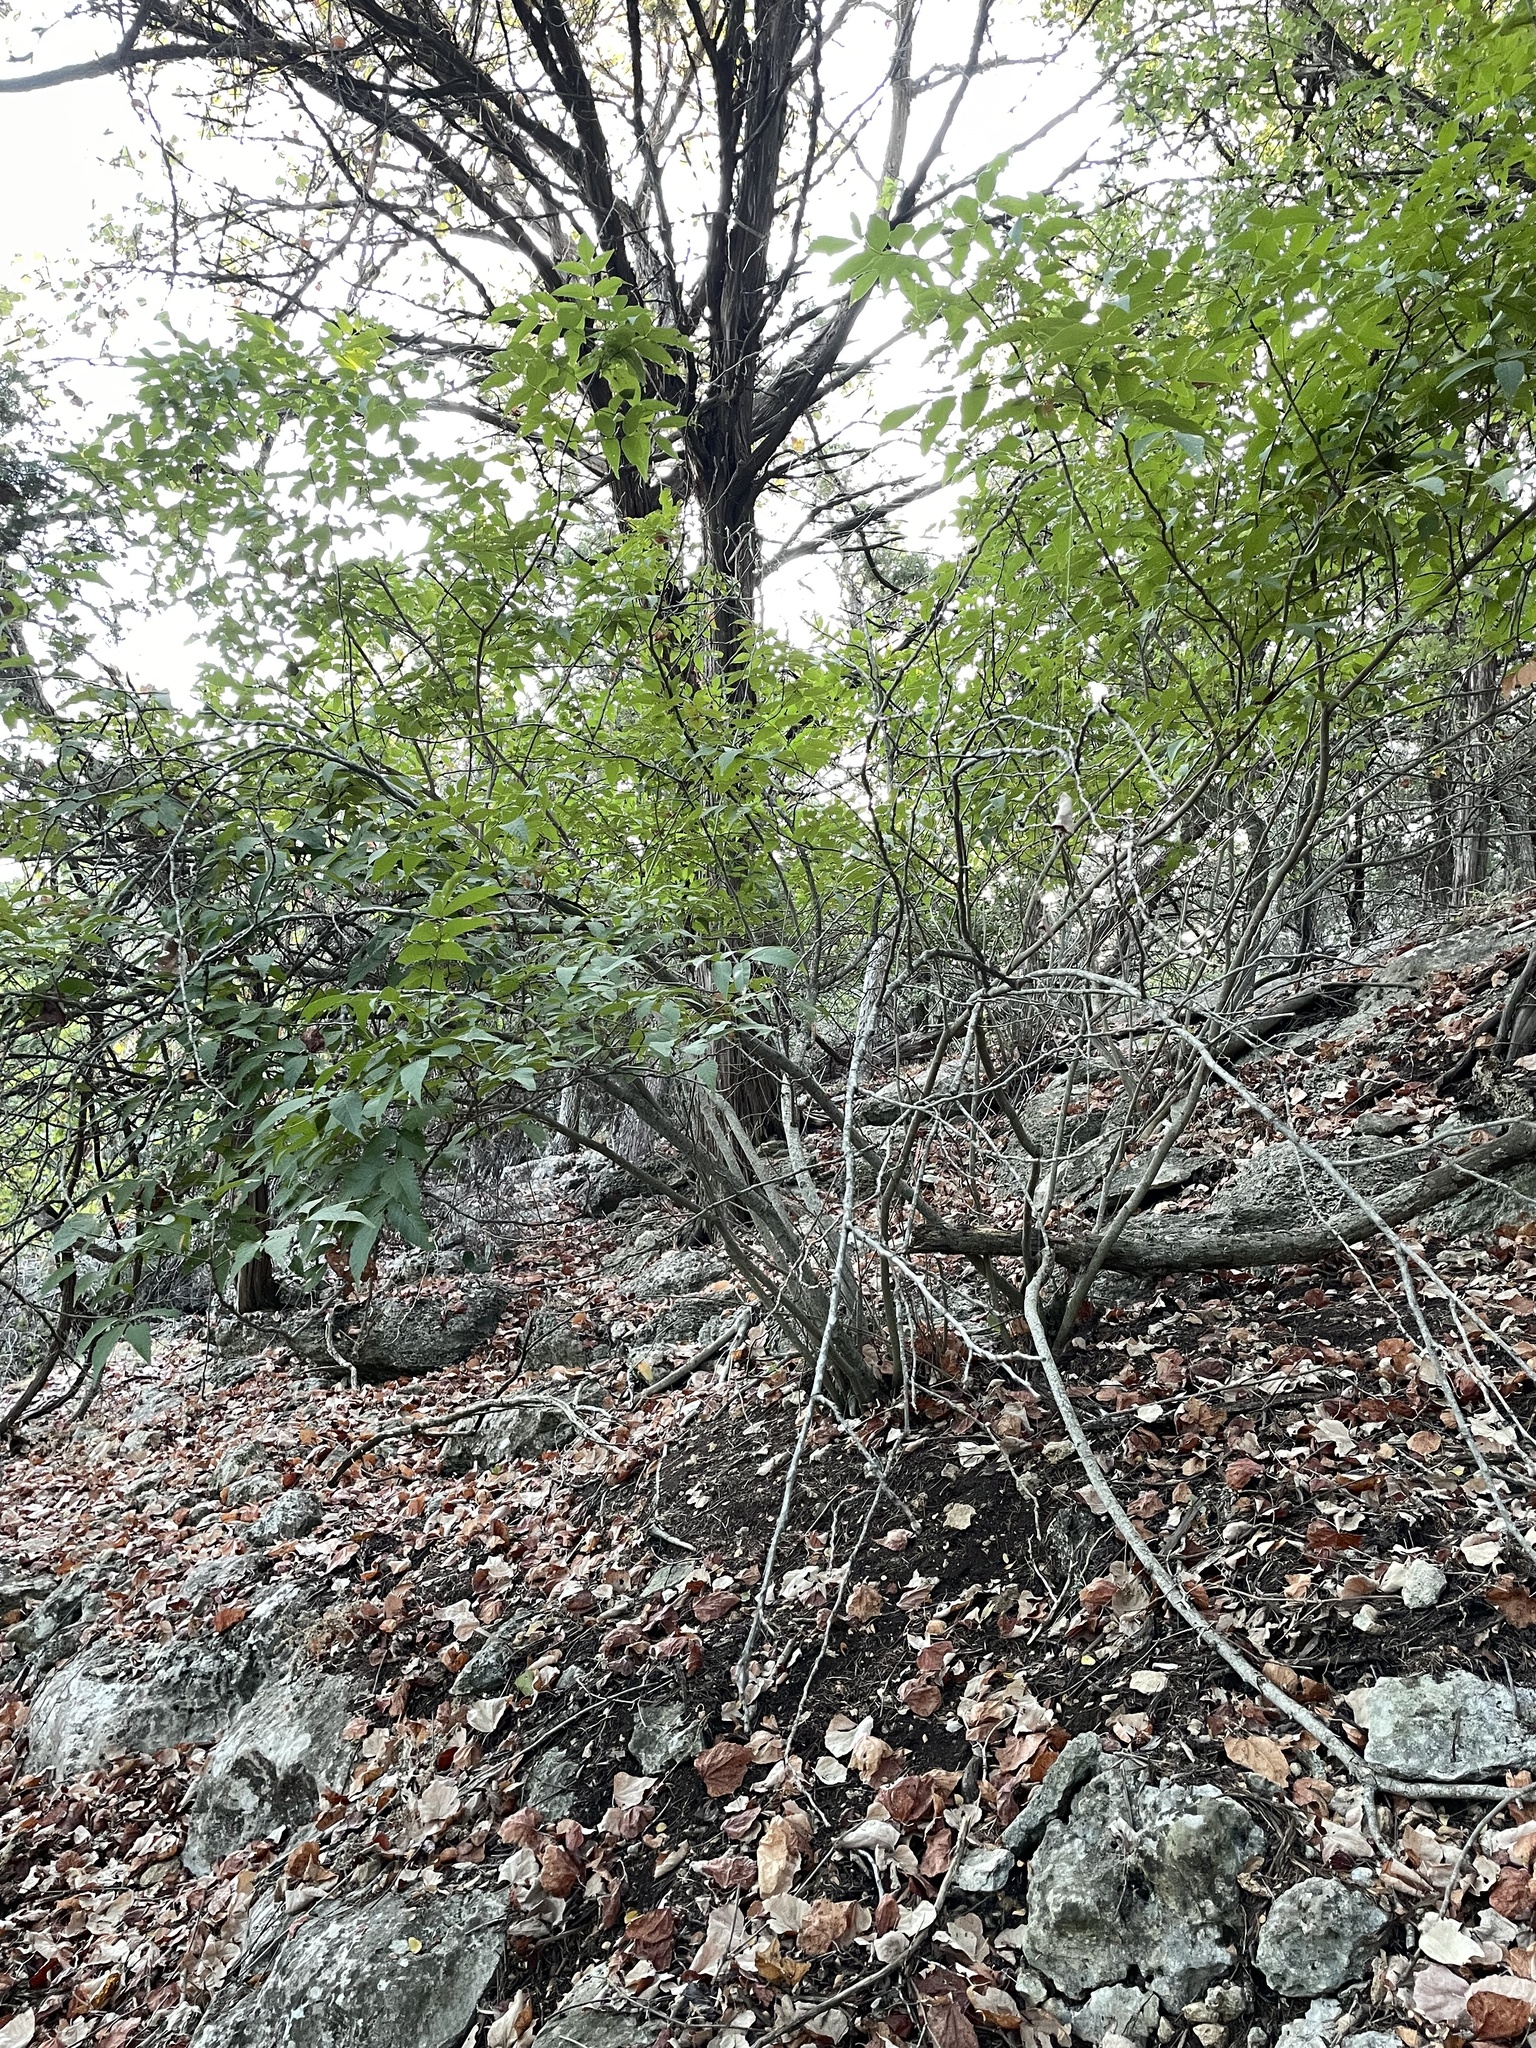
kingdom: Plantae
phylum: Tracheophyta
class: Magnoliopsida
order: Sapindales
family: Sapindaceae
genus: Ungnadia
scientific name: Ungnadia speciosa
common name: Texas-buckeye
